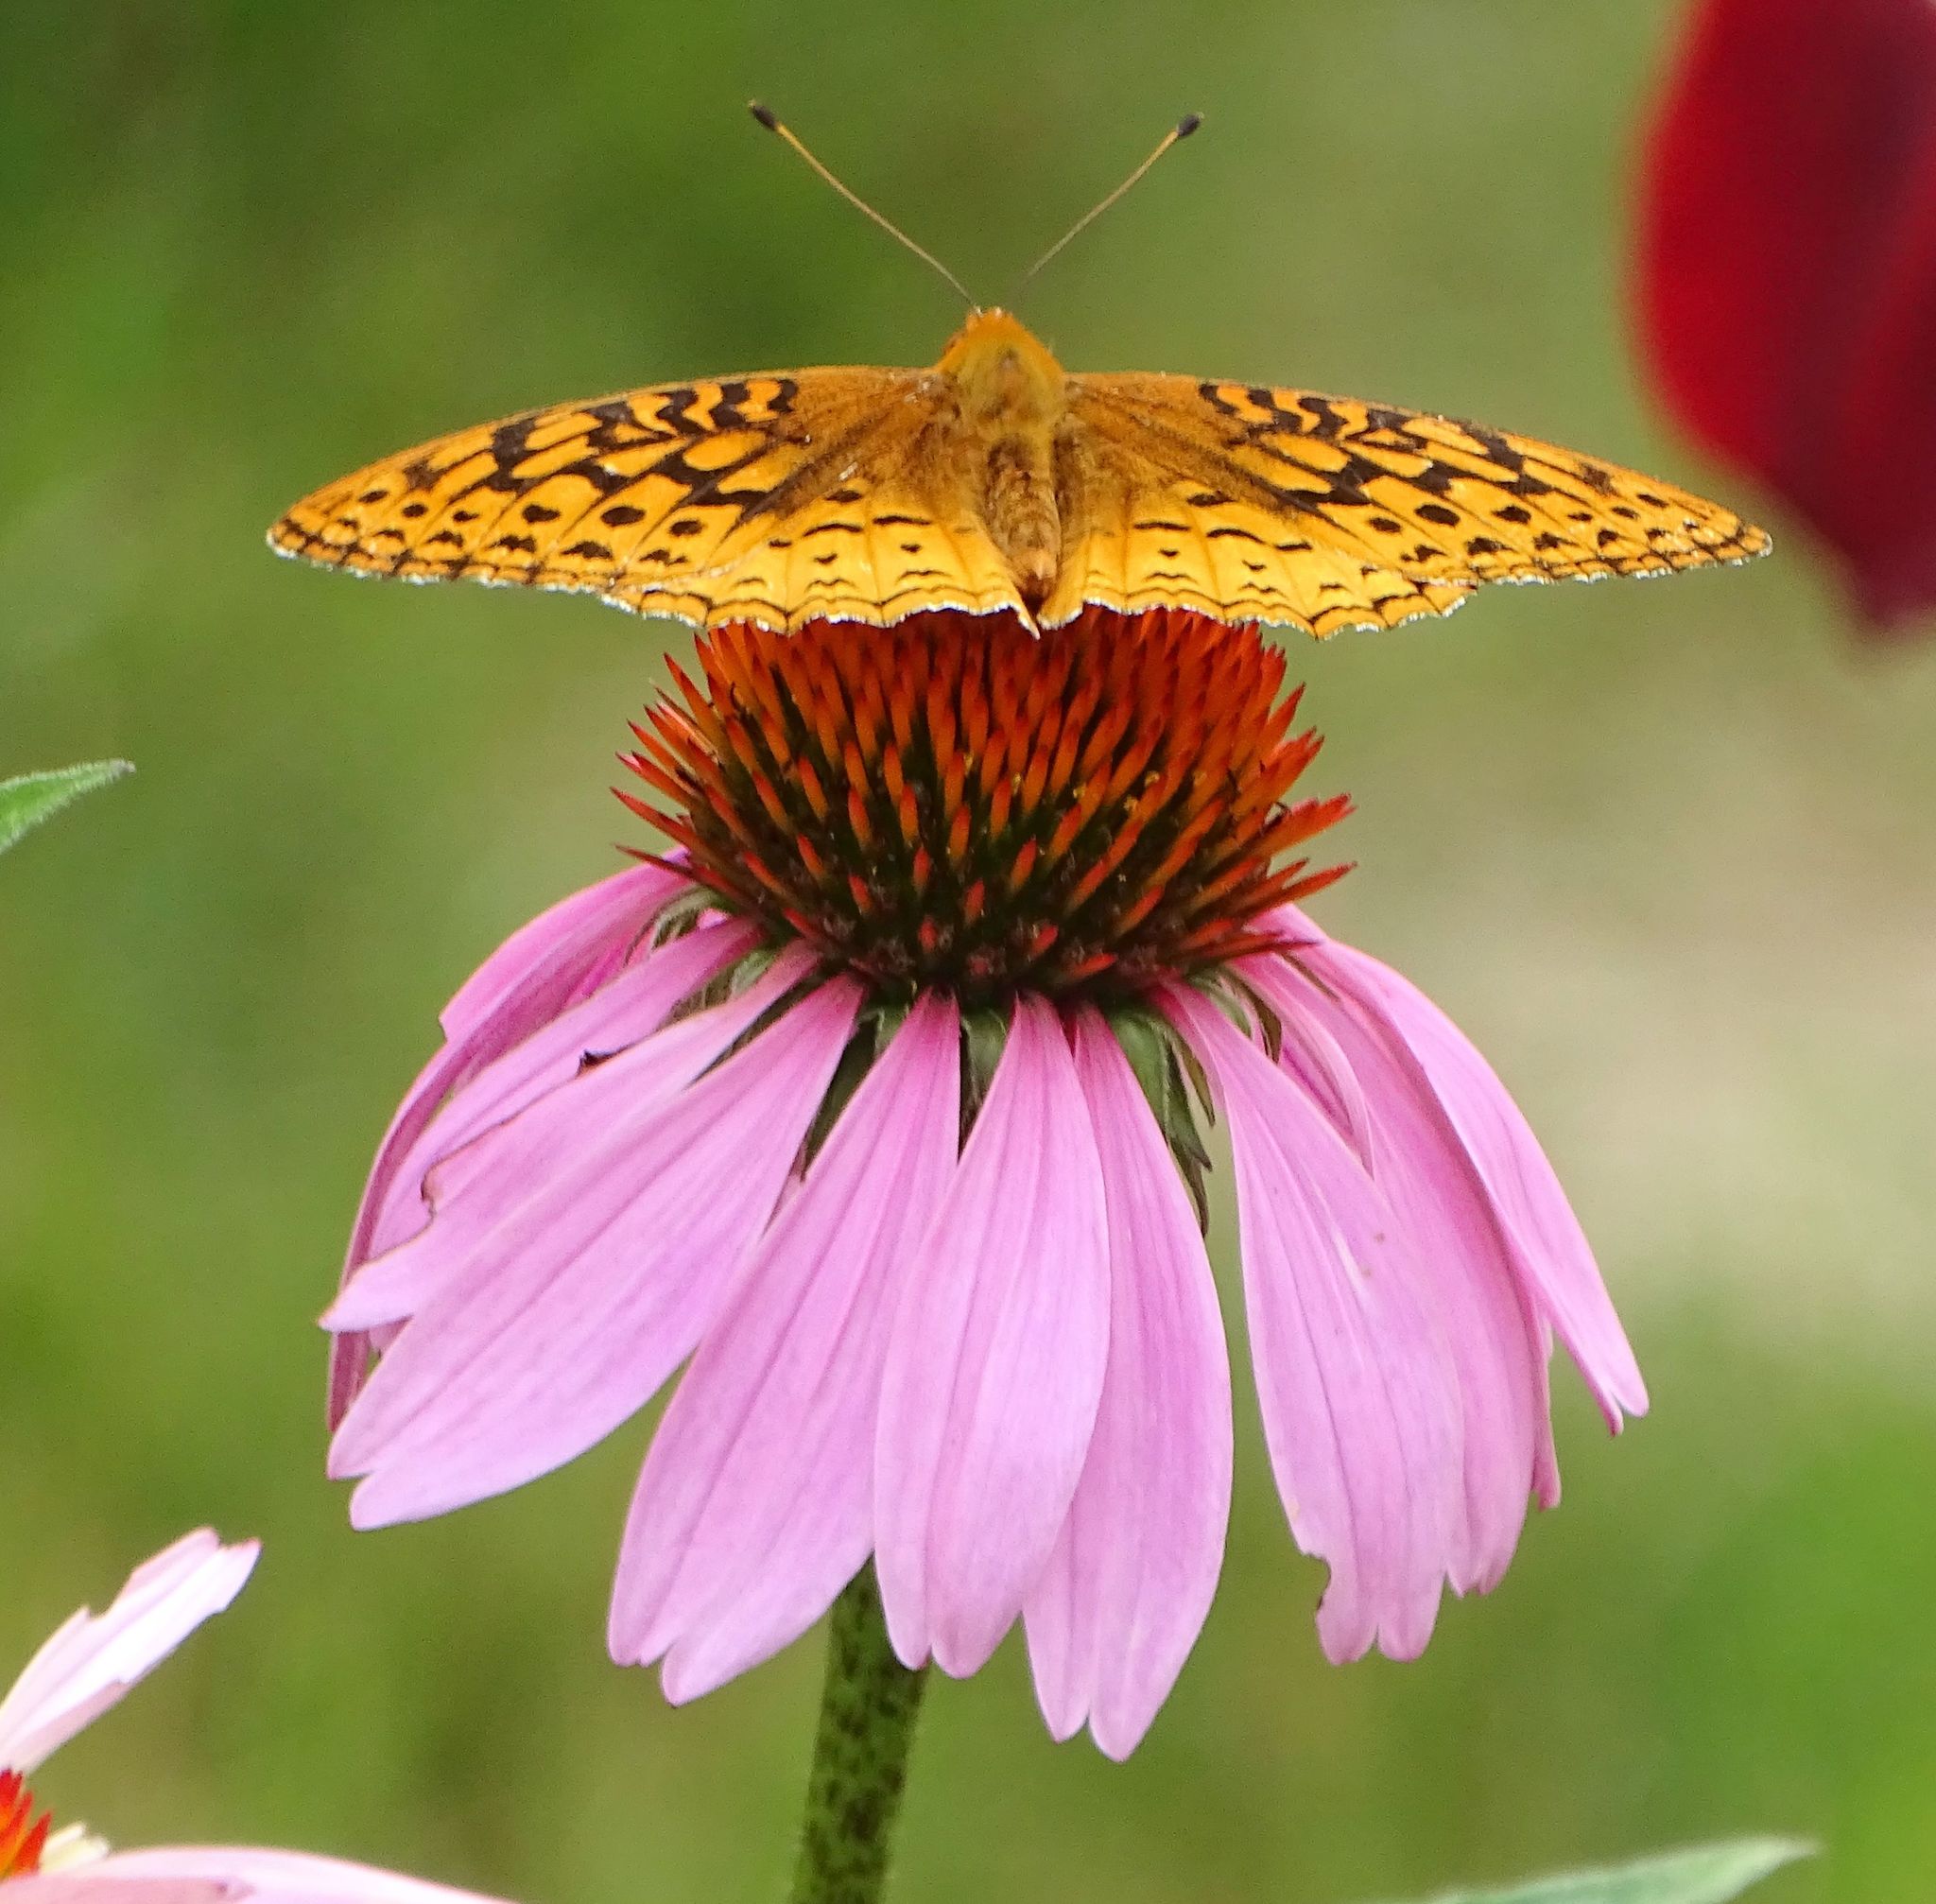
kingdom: Animalia
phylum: Arthropoda
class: Insecta
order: Lepidoptera
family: Nymphalidae
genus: Speyeria
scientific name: Speyeria cybele
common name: Great spangled fritillary
